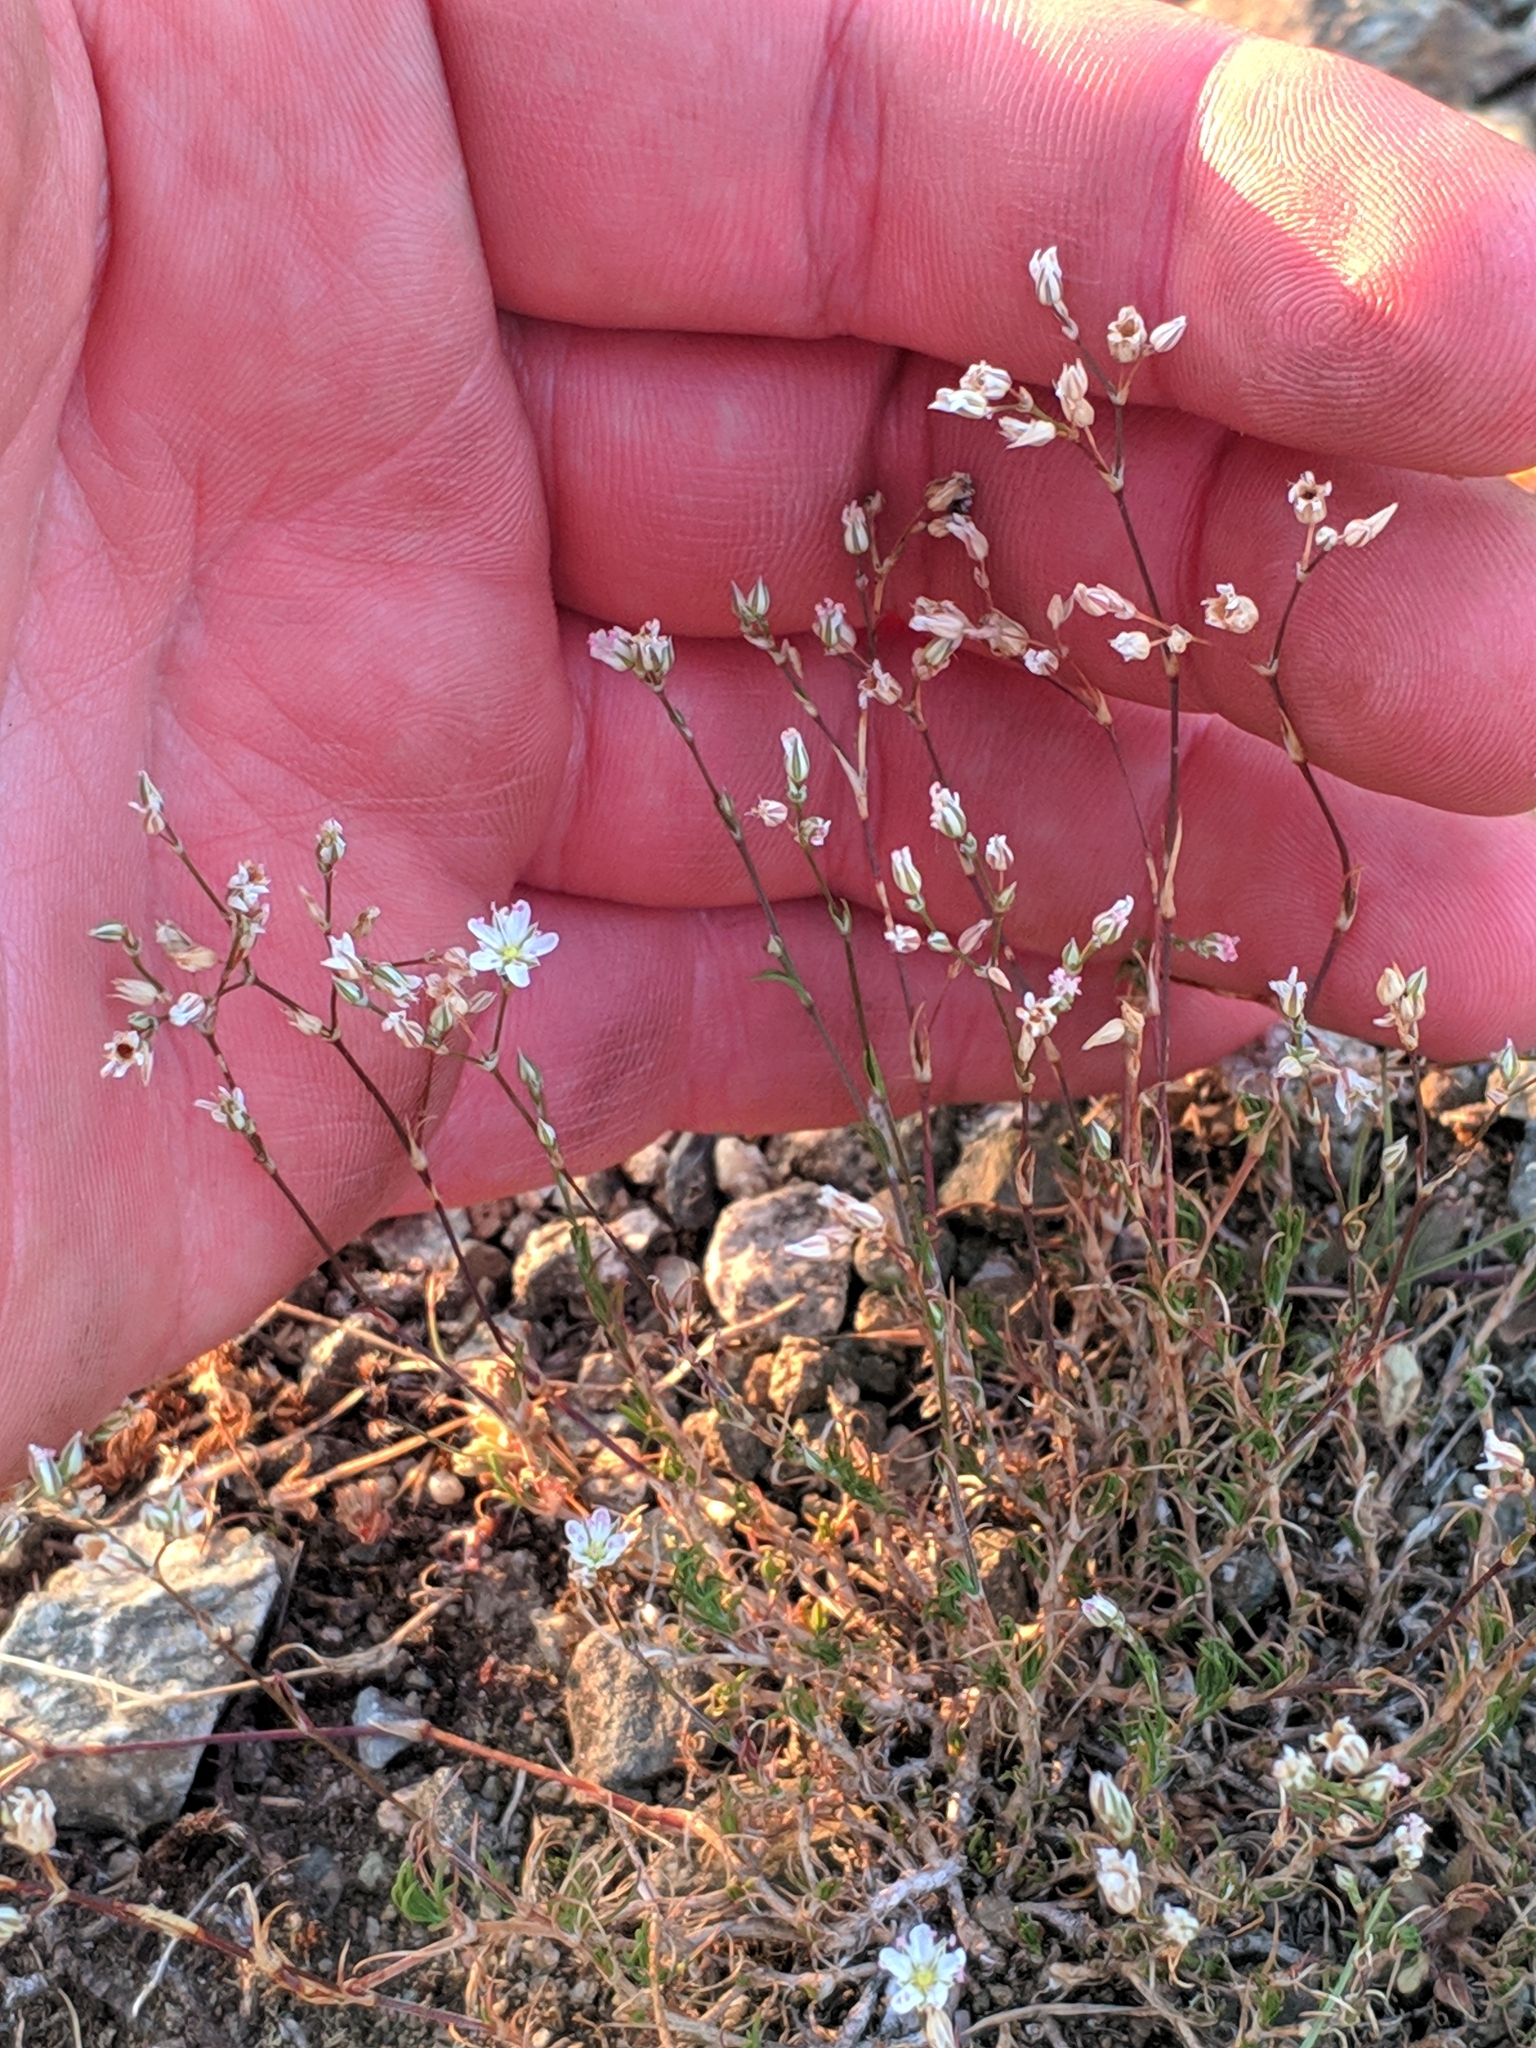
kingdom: Plantae
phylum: Tracheophyta
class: Magnoliopsida
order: Caryophyllales
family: Caryophyllaceae
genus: Minuartia
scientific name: Minuartia setacea
